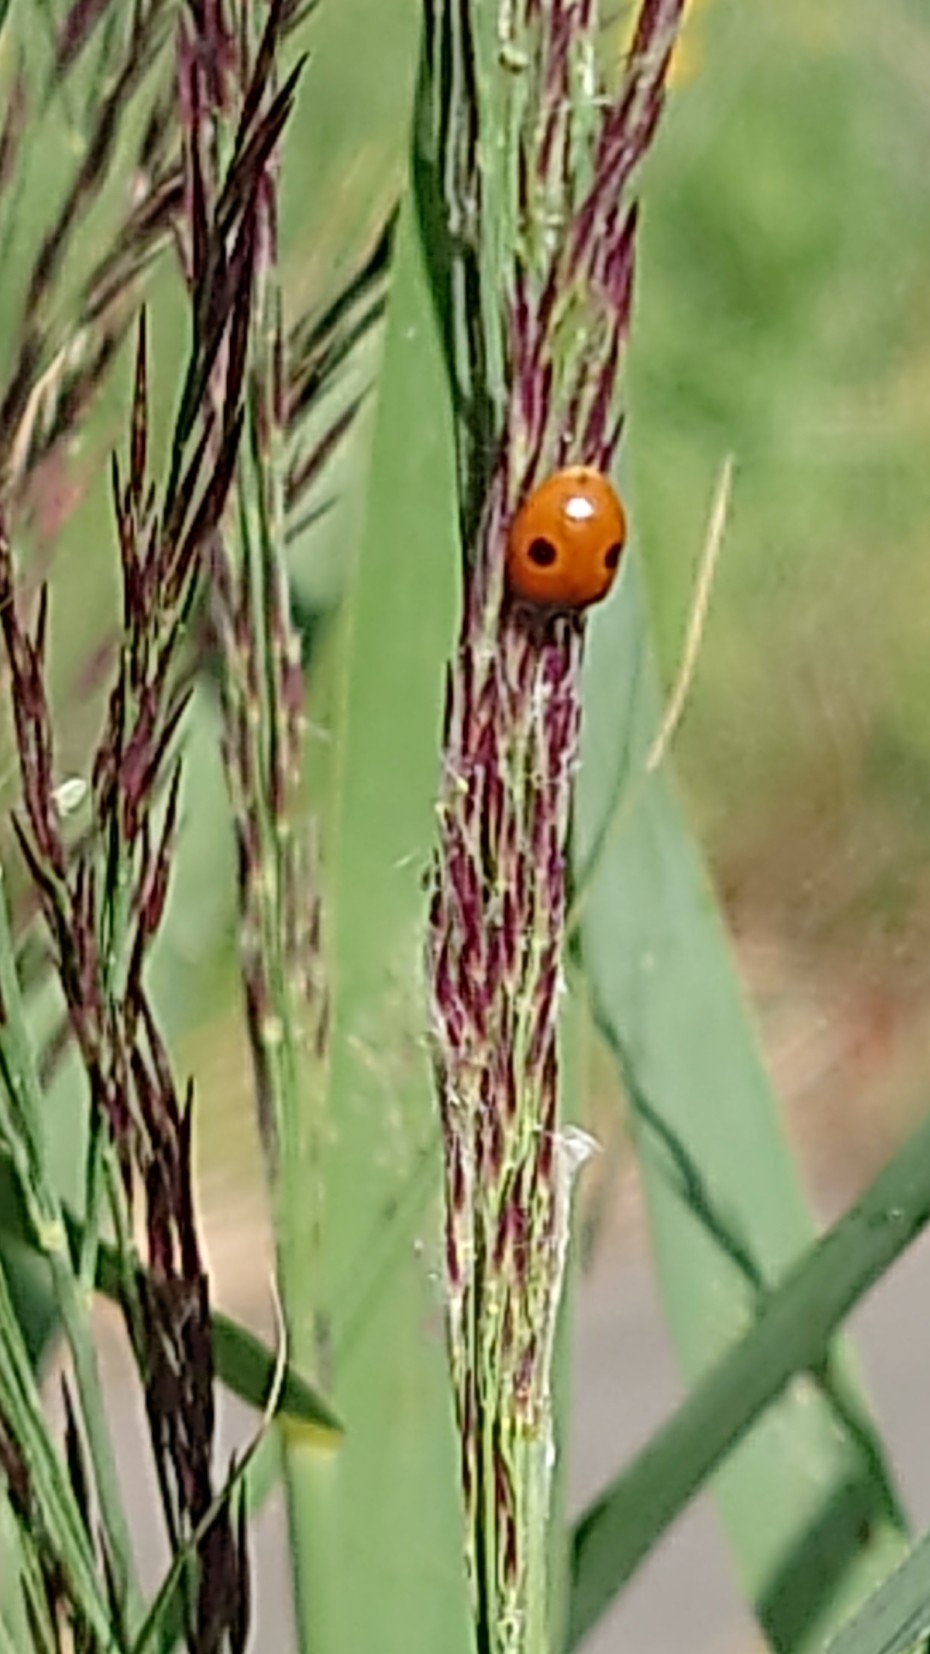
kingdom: Animalia
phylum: Arthropoda
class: Insecta
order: Coleoptera
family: Coccinellidae
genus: Adalia
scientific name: Adalia bipunctata
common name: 2-spot ladybird
